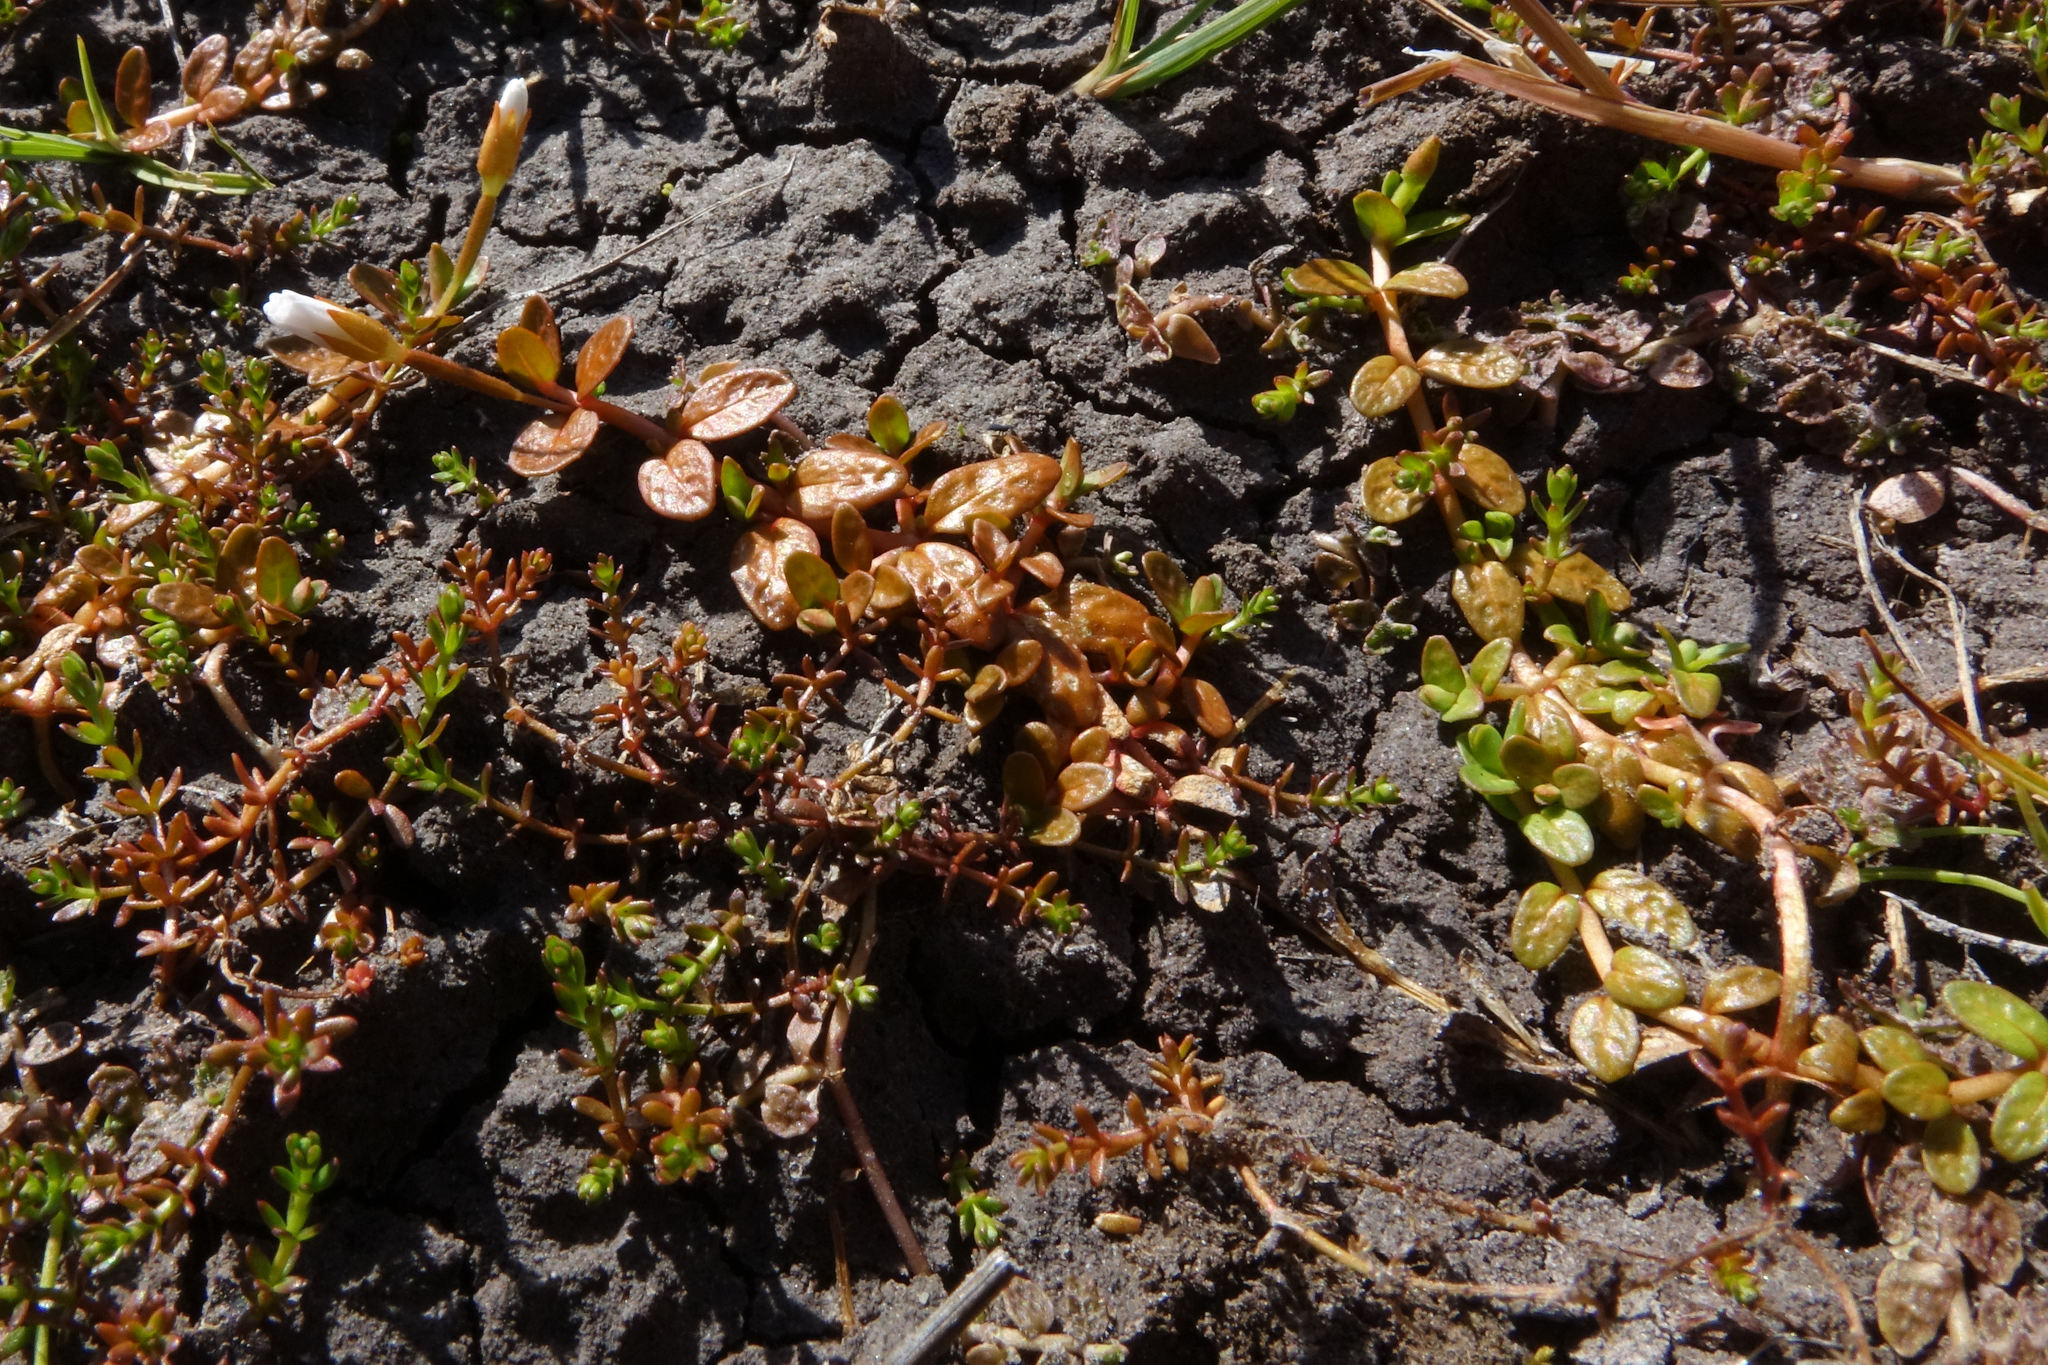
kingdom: Plantae
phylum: Tracheophyta
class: Magnoliopsida
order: Myrtales
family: Onagraceae
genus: Epilobium
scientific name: Epilobium angustum
